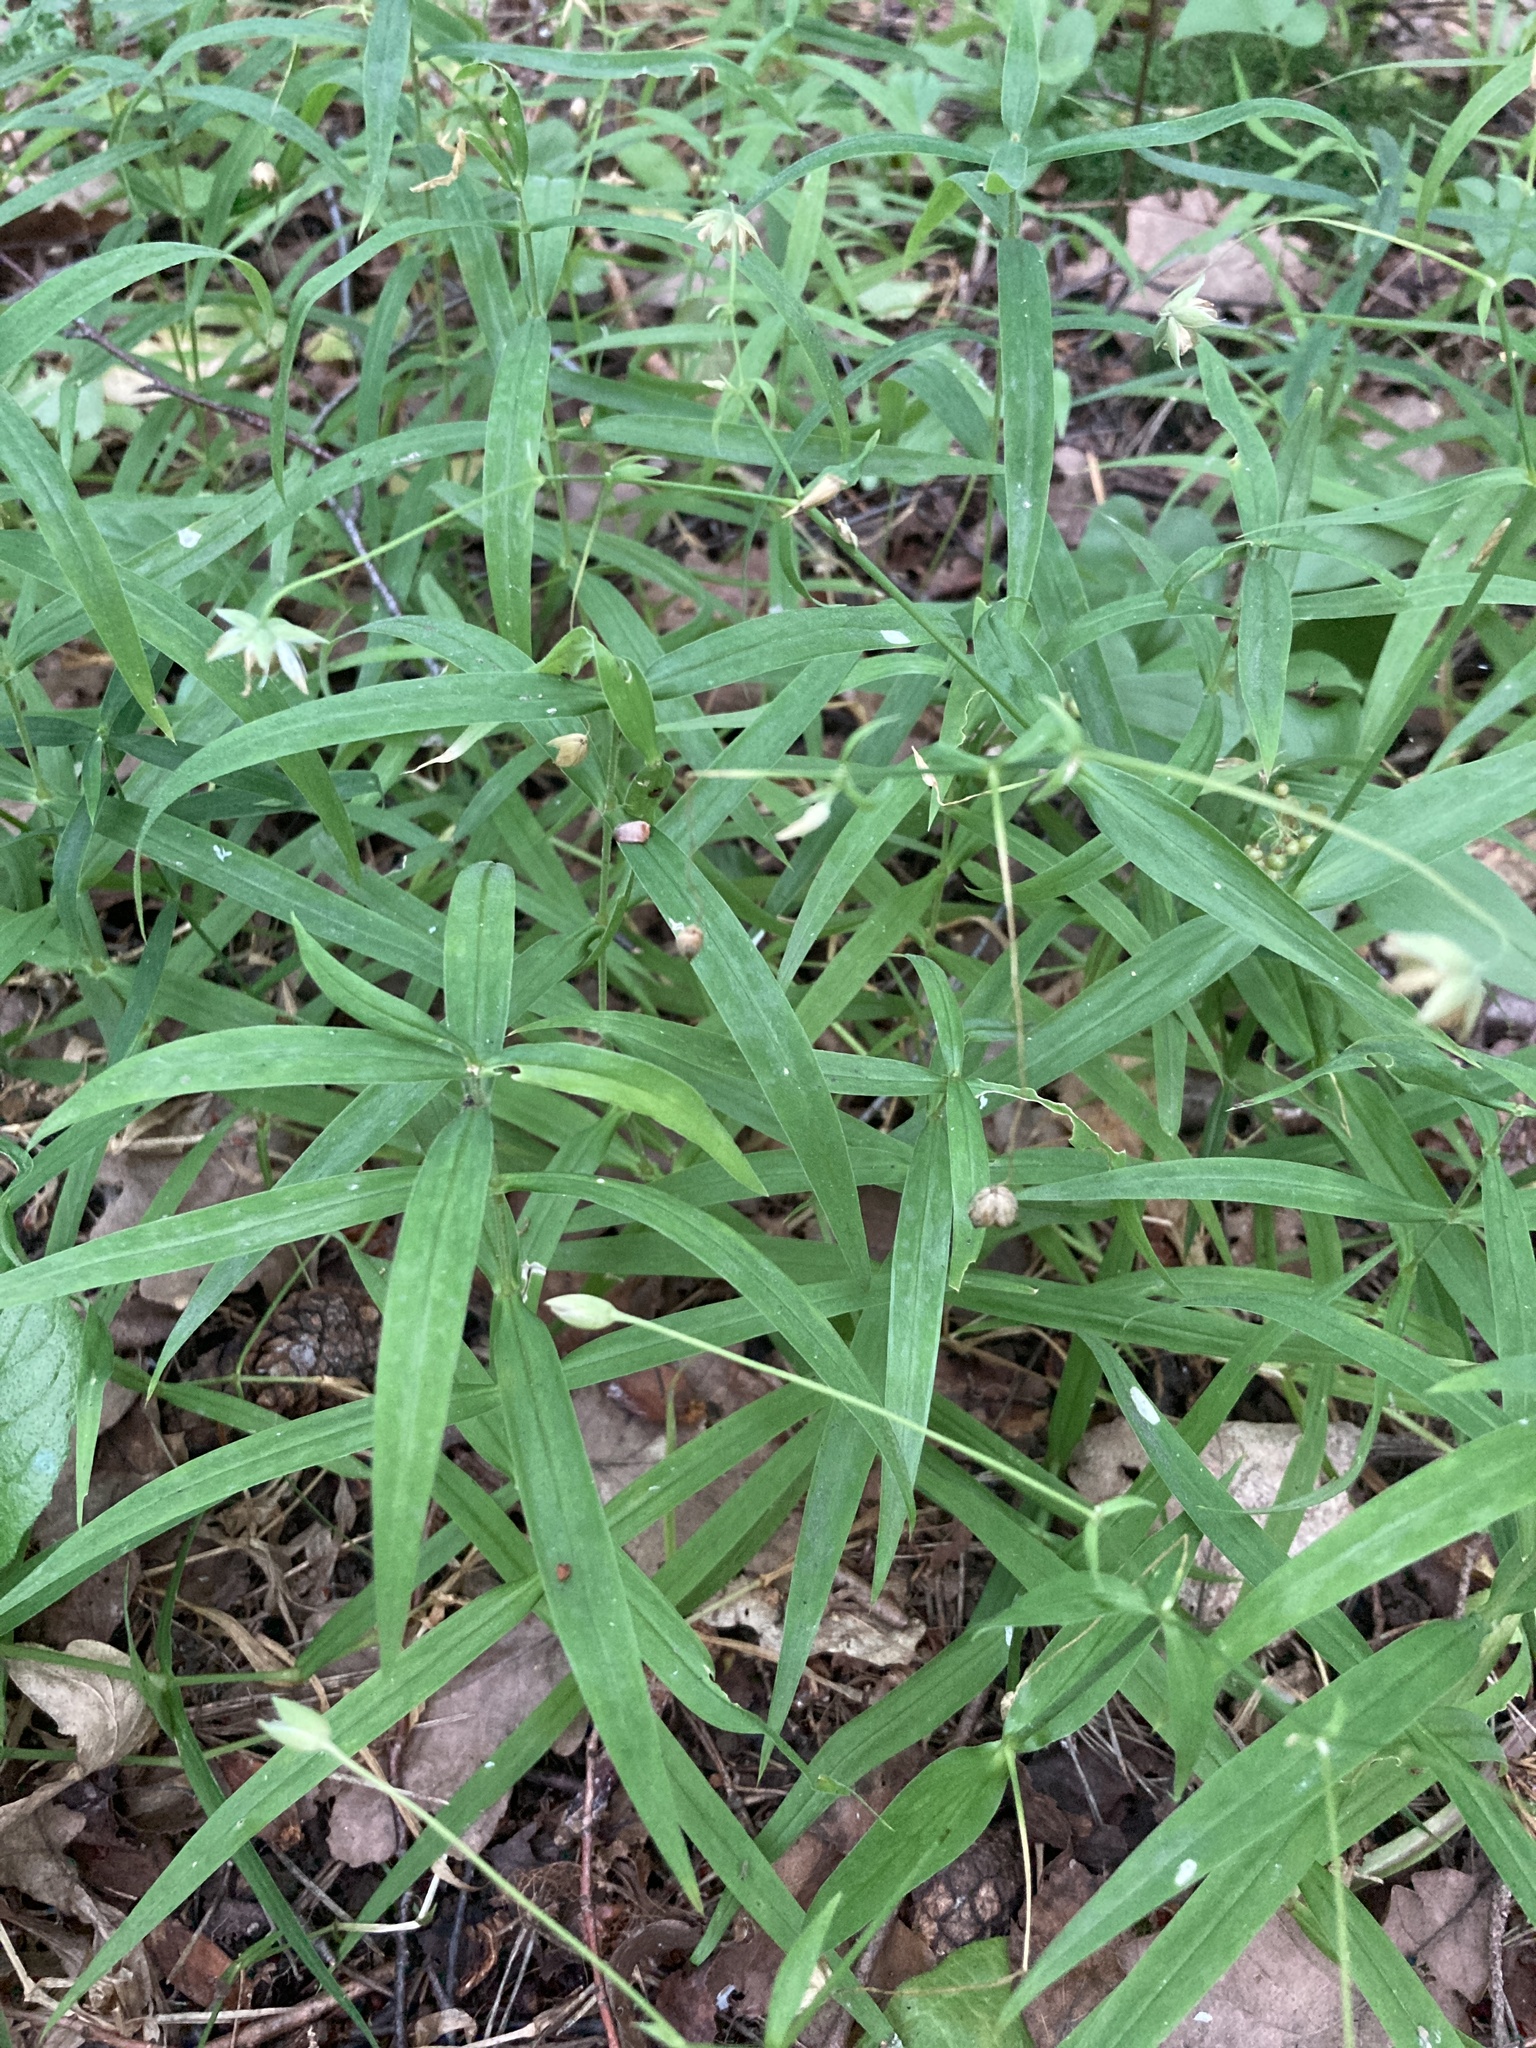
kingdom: Plantae
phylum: Tracheophyta
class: Magnoliopsida
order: Caryophyllales
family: Caryophyllaceae
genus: Rabelera
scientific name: Rabelera holostea
